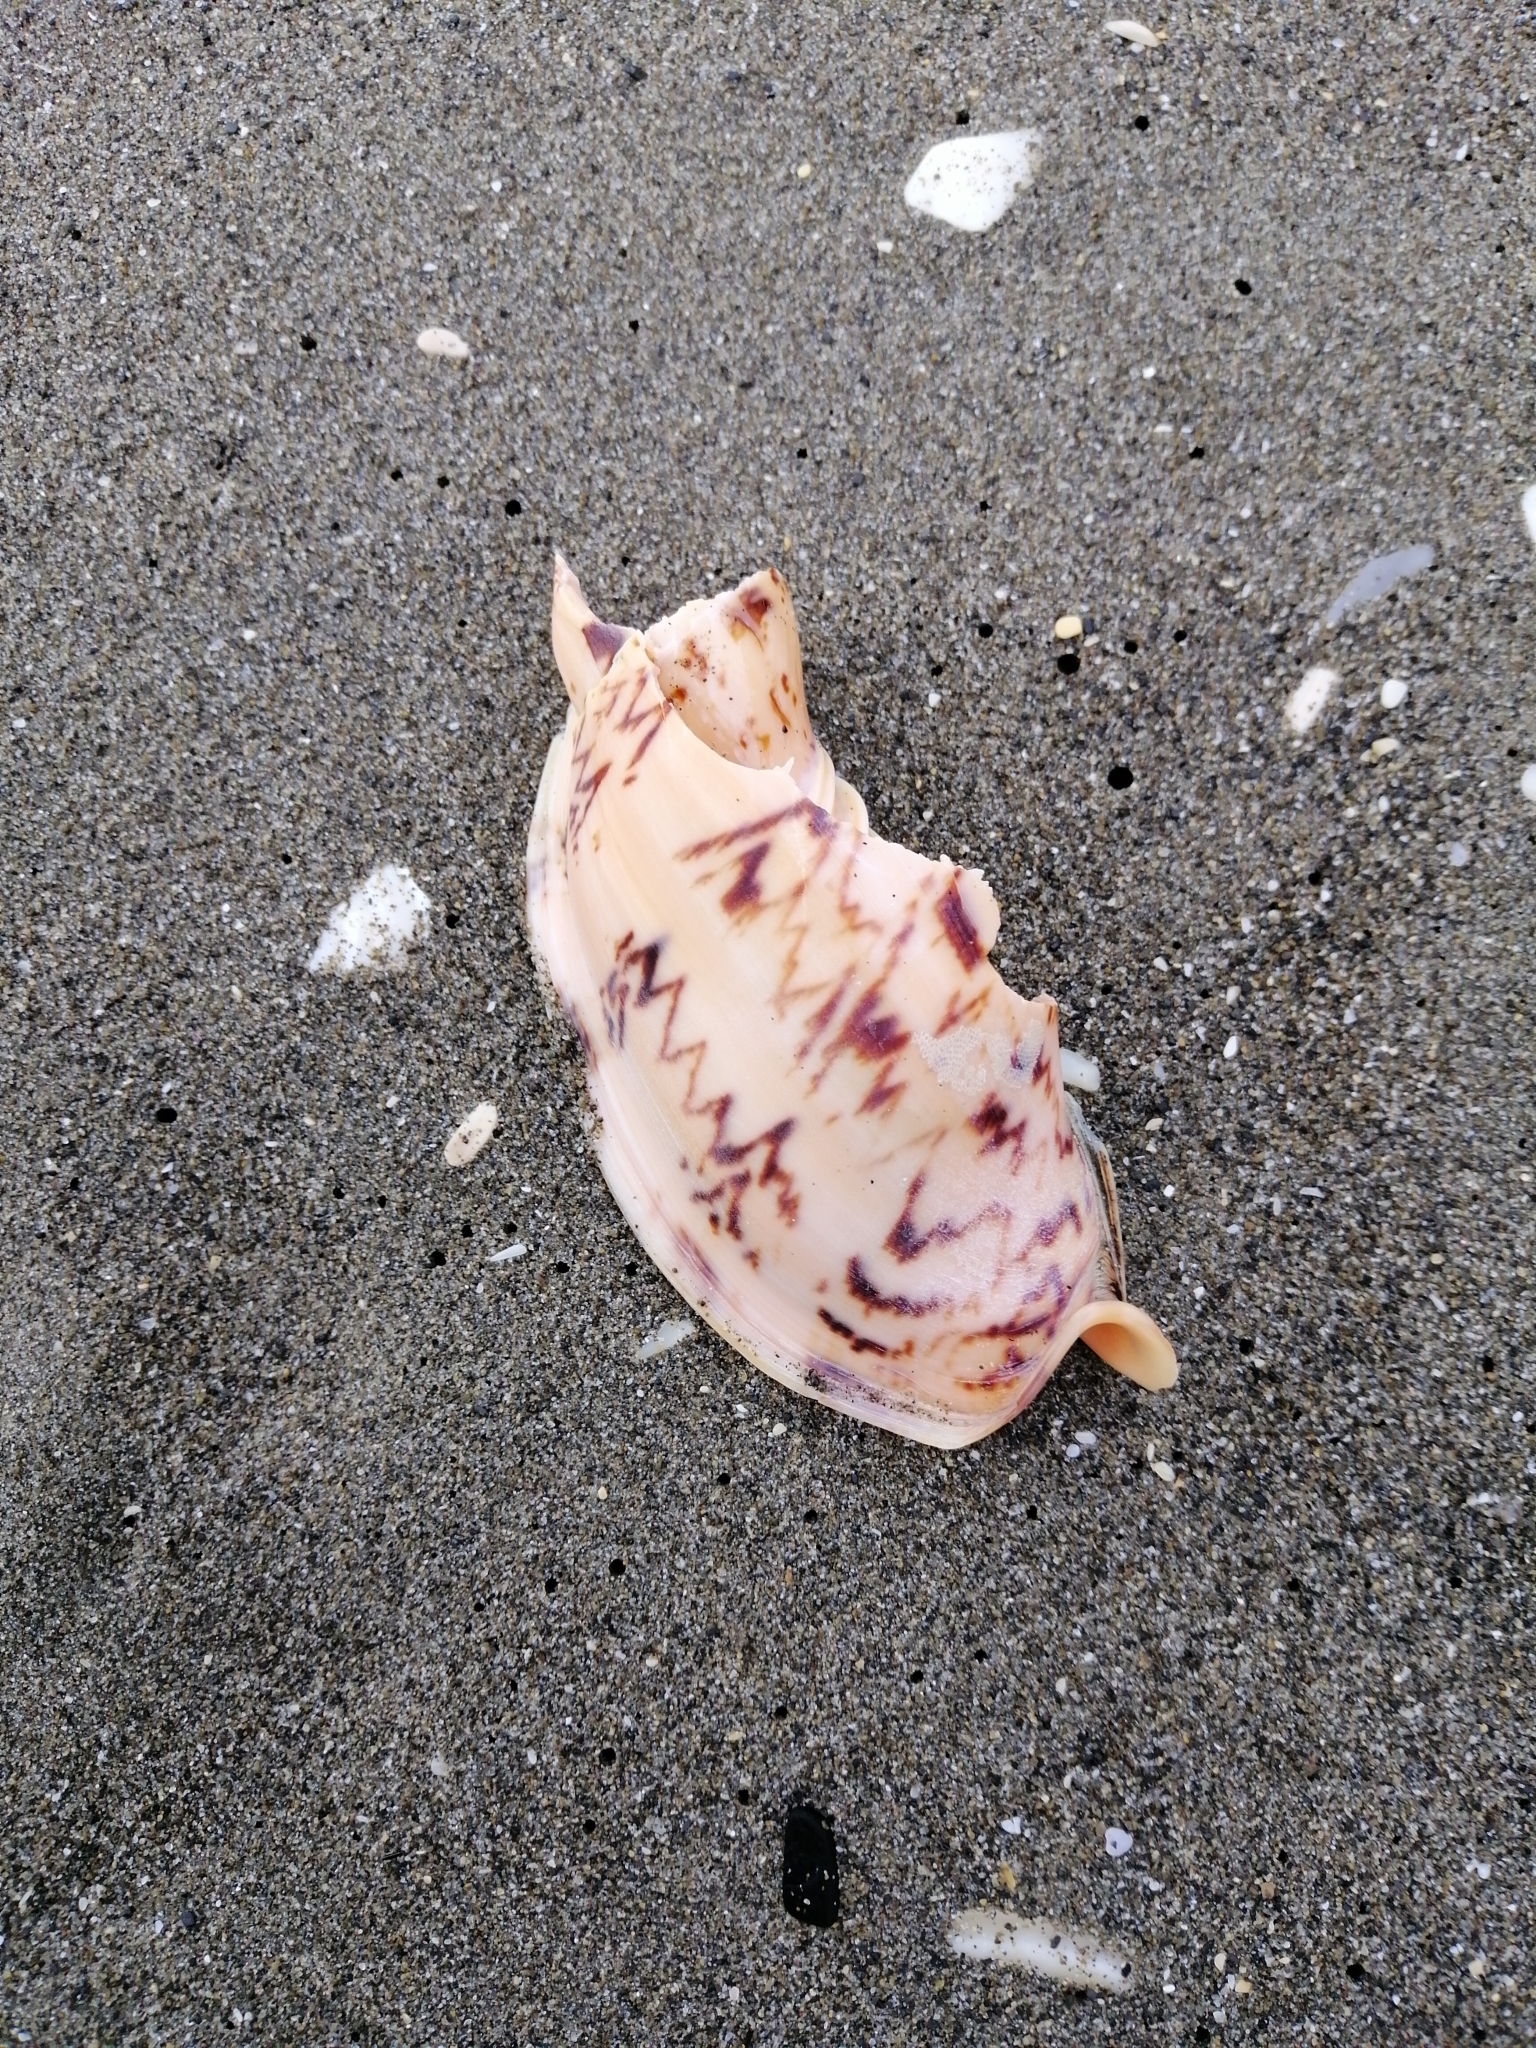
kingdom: Animalia
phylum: Mollusca
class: Gastropoda
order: Neogastropoda
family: Volutidae
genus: Alcithoe
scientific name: Alcithoe arabica
